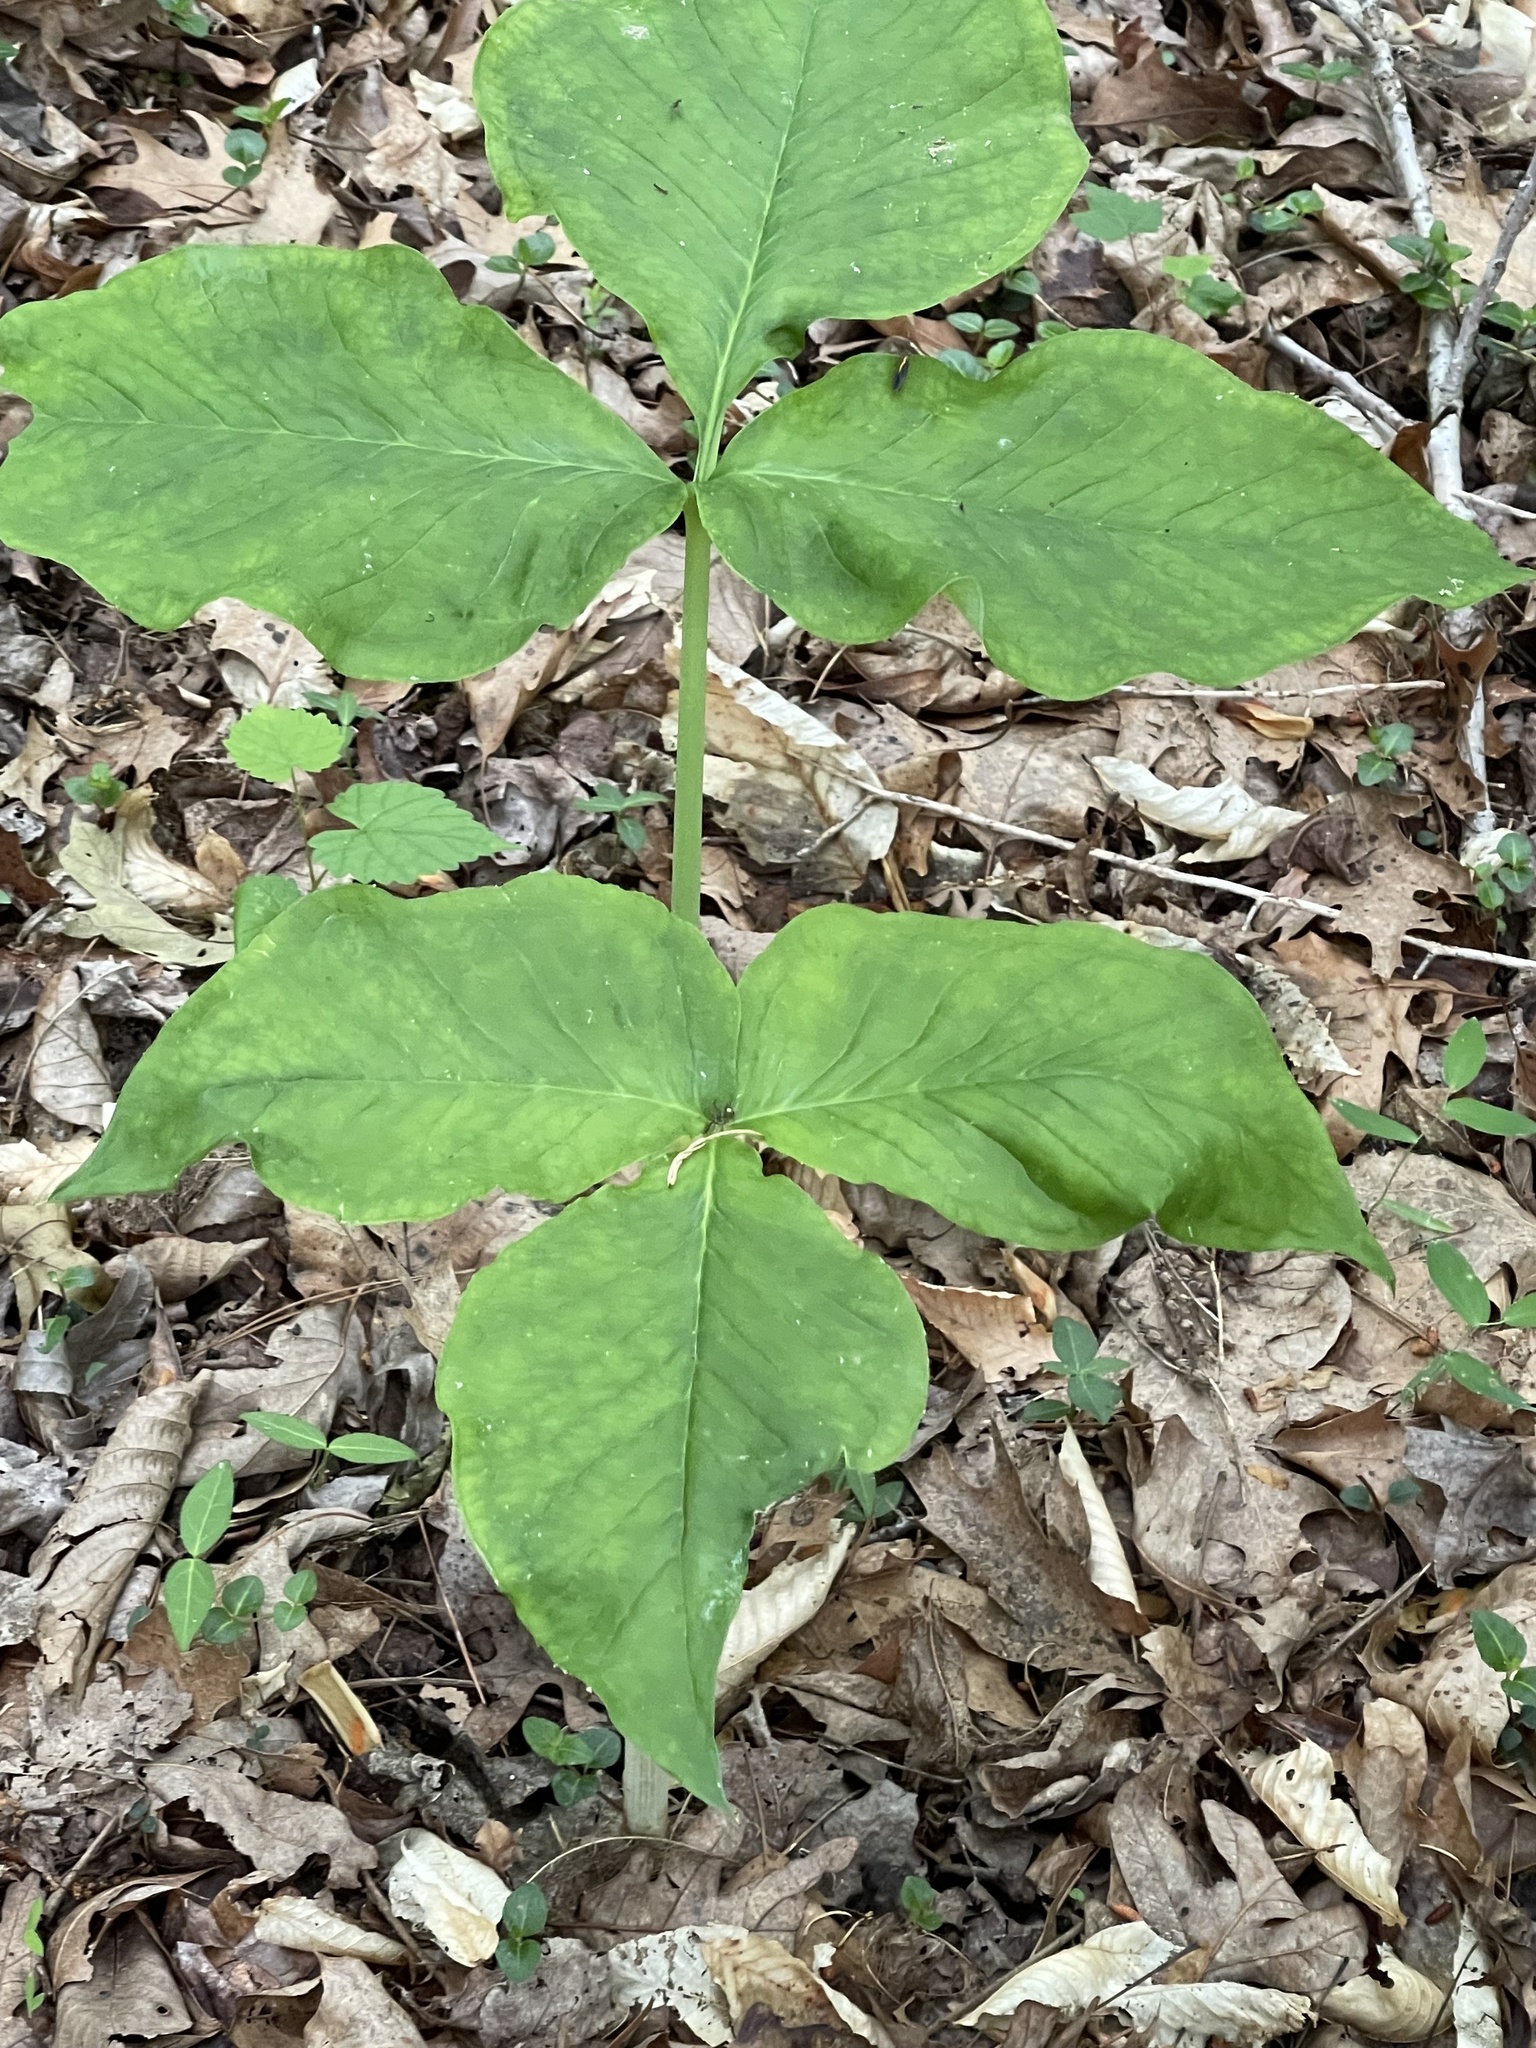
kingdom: Plantae
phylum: Tracheophyta
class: Liliopsida
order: Alismatales
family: Araceae
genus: Arisaema
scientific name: Arisaema triphyllum
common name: Jack-in-the-pulpit
